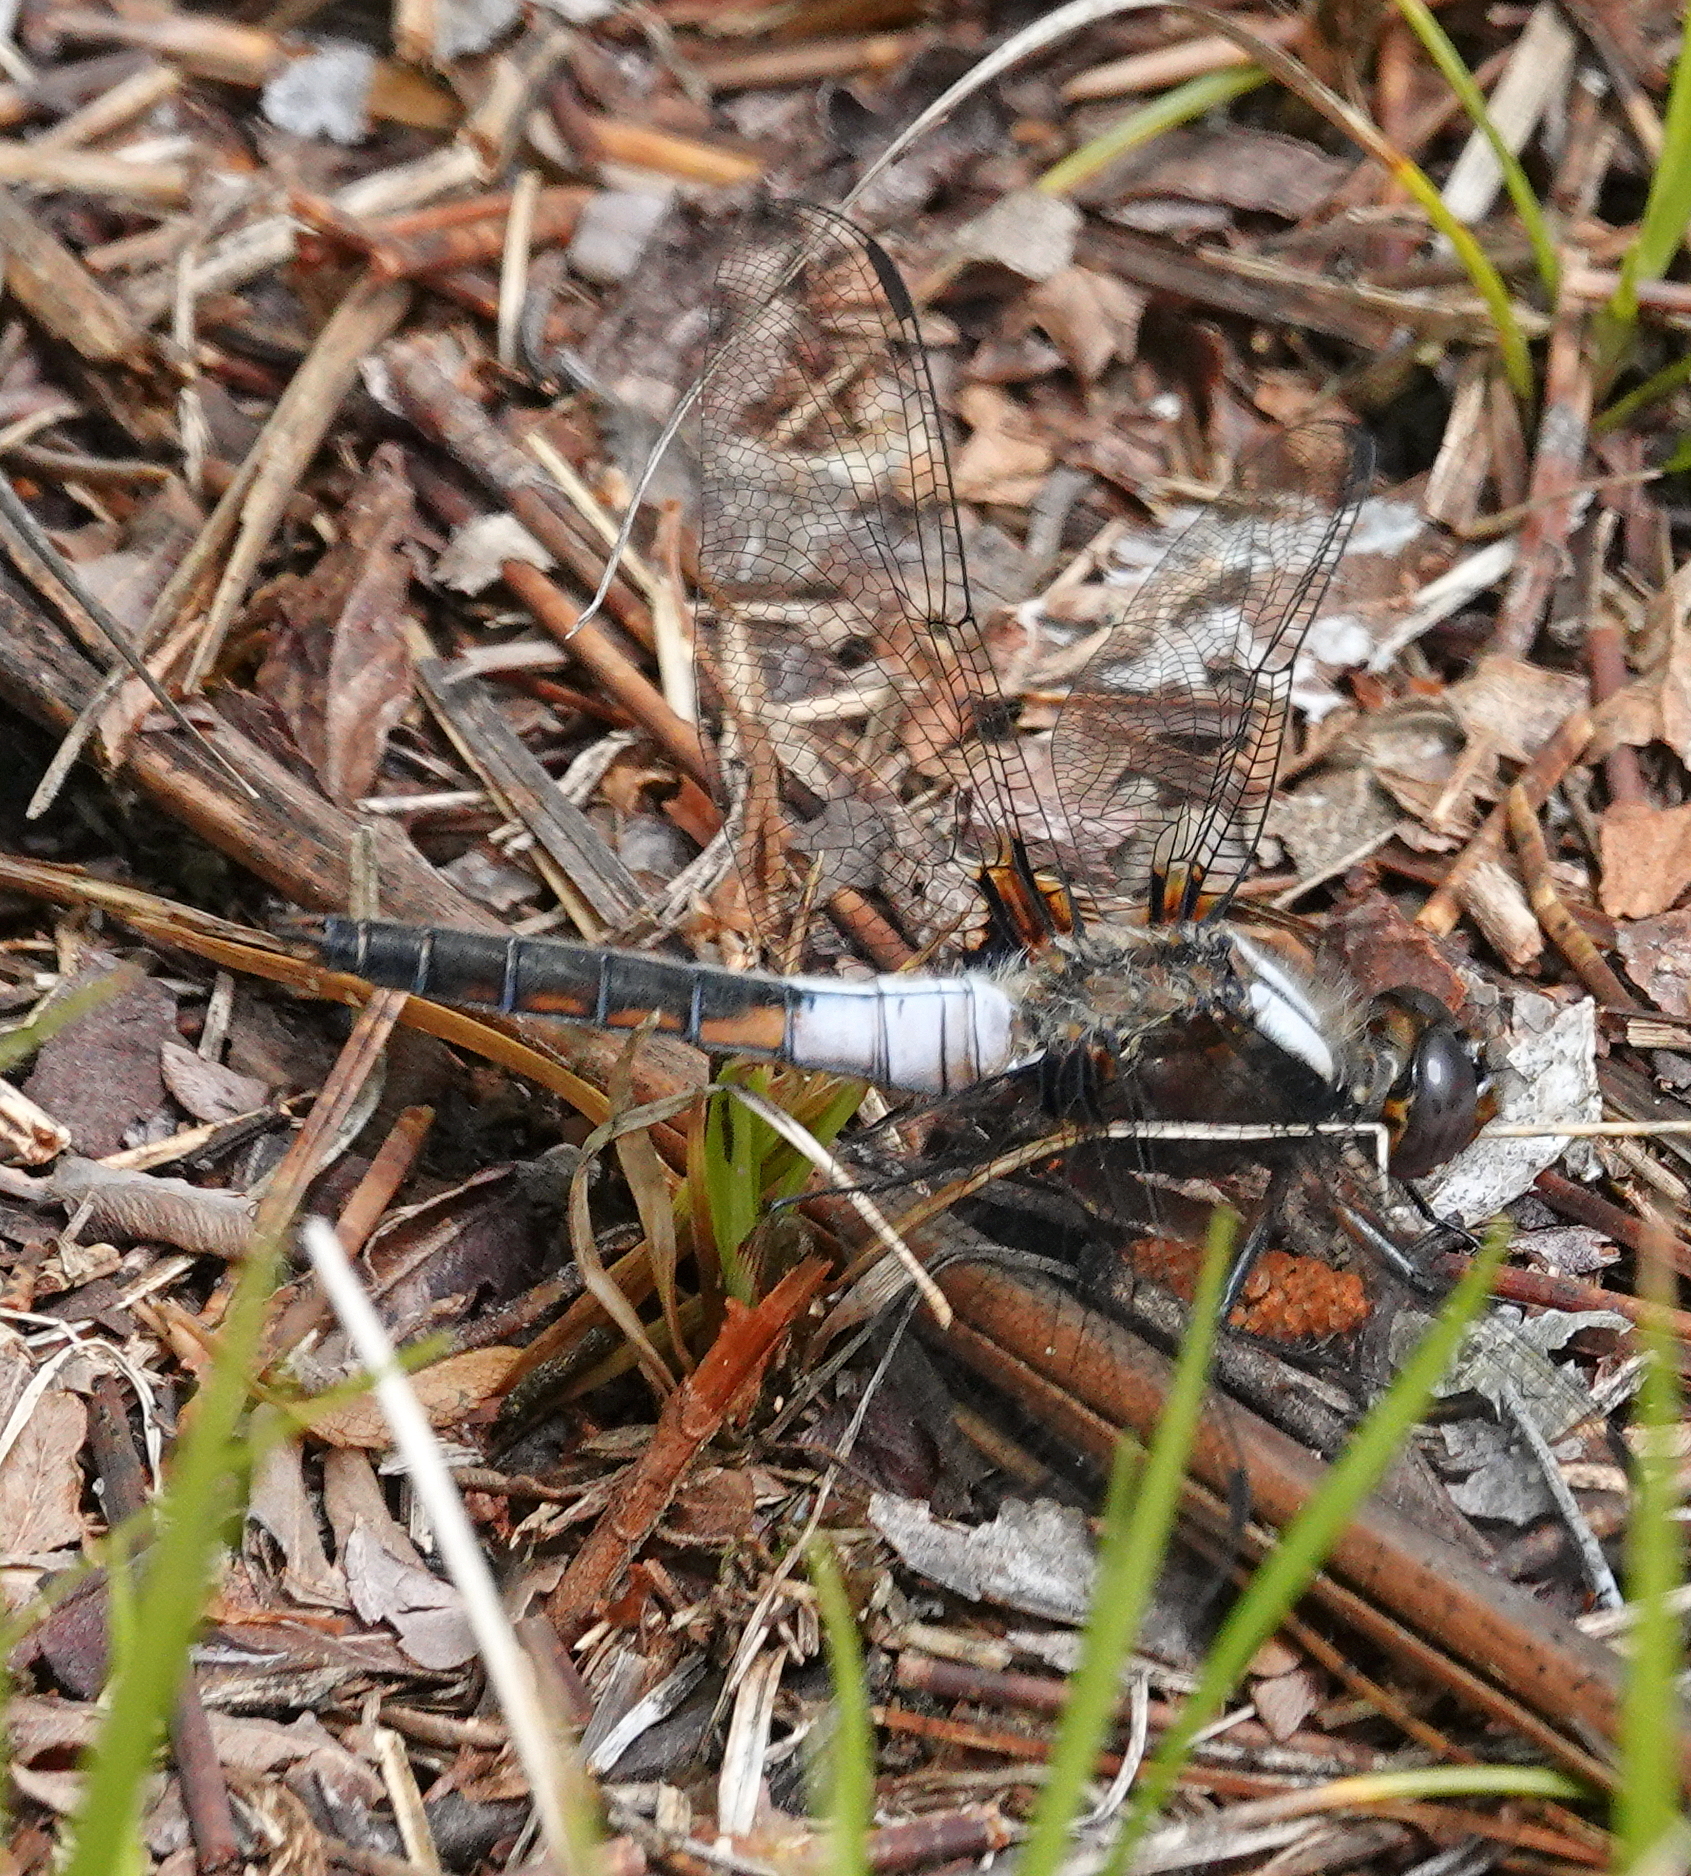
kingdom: Animalia
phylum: Arthropoda
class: Insecta
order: Odonata
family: Libellulidae
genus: Ladona
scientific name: Ladona julia
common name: Chalk-fronted corporal
